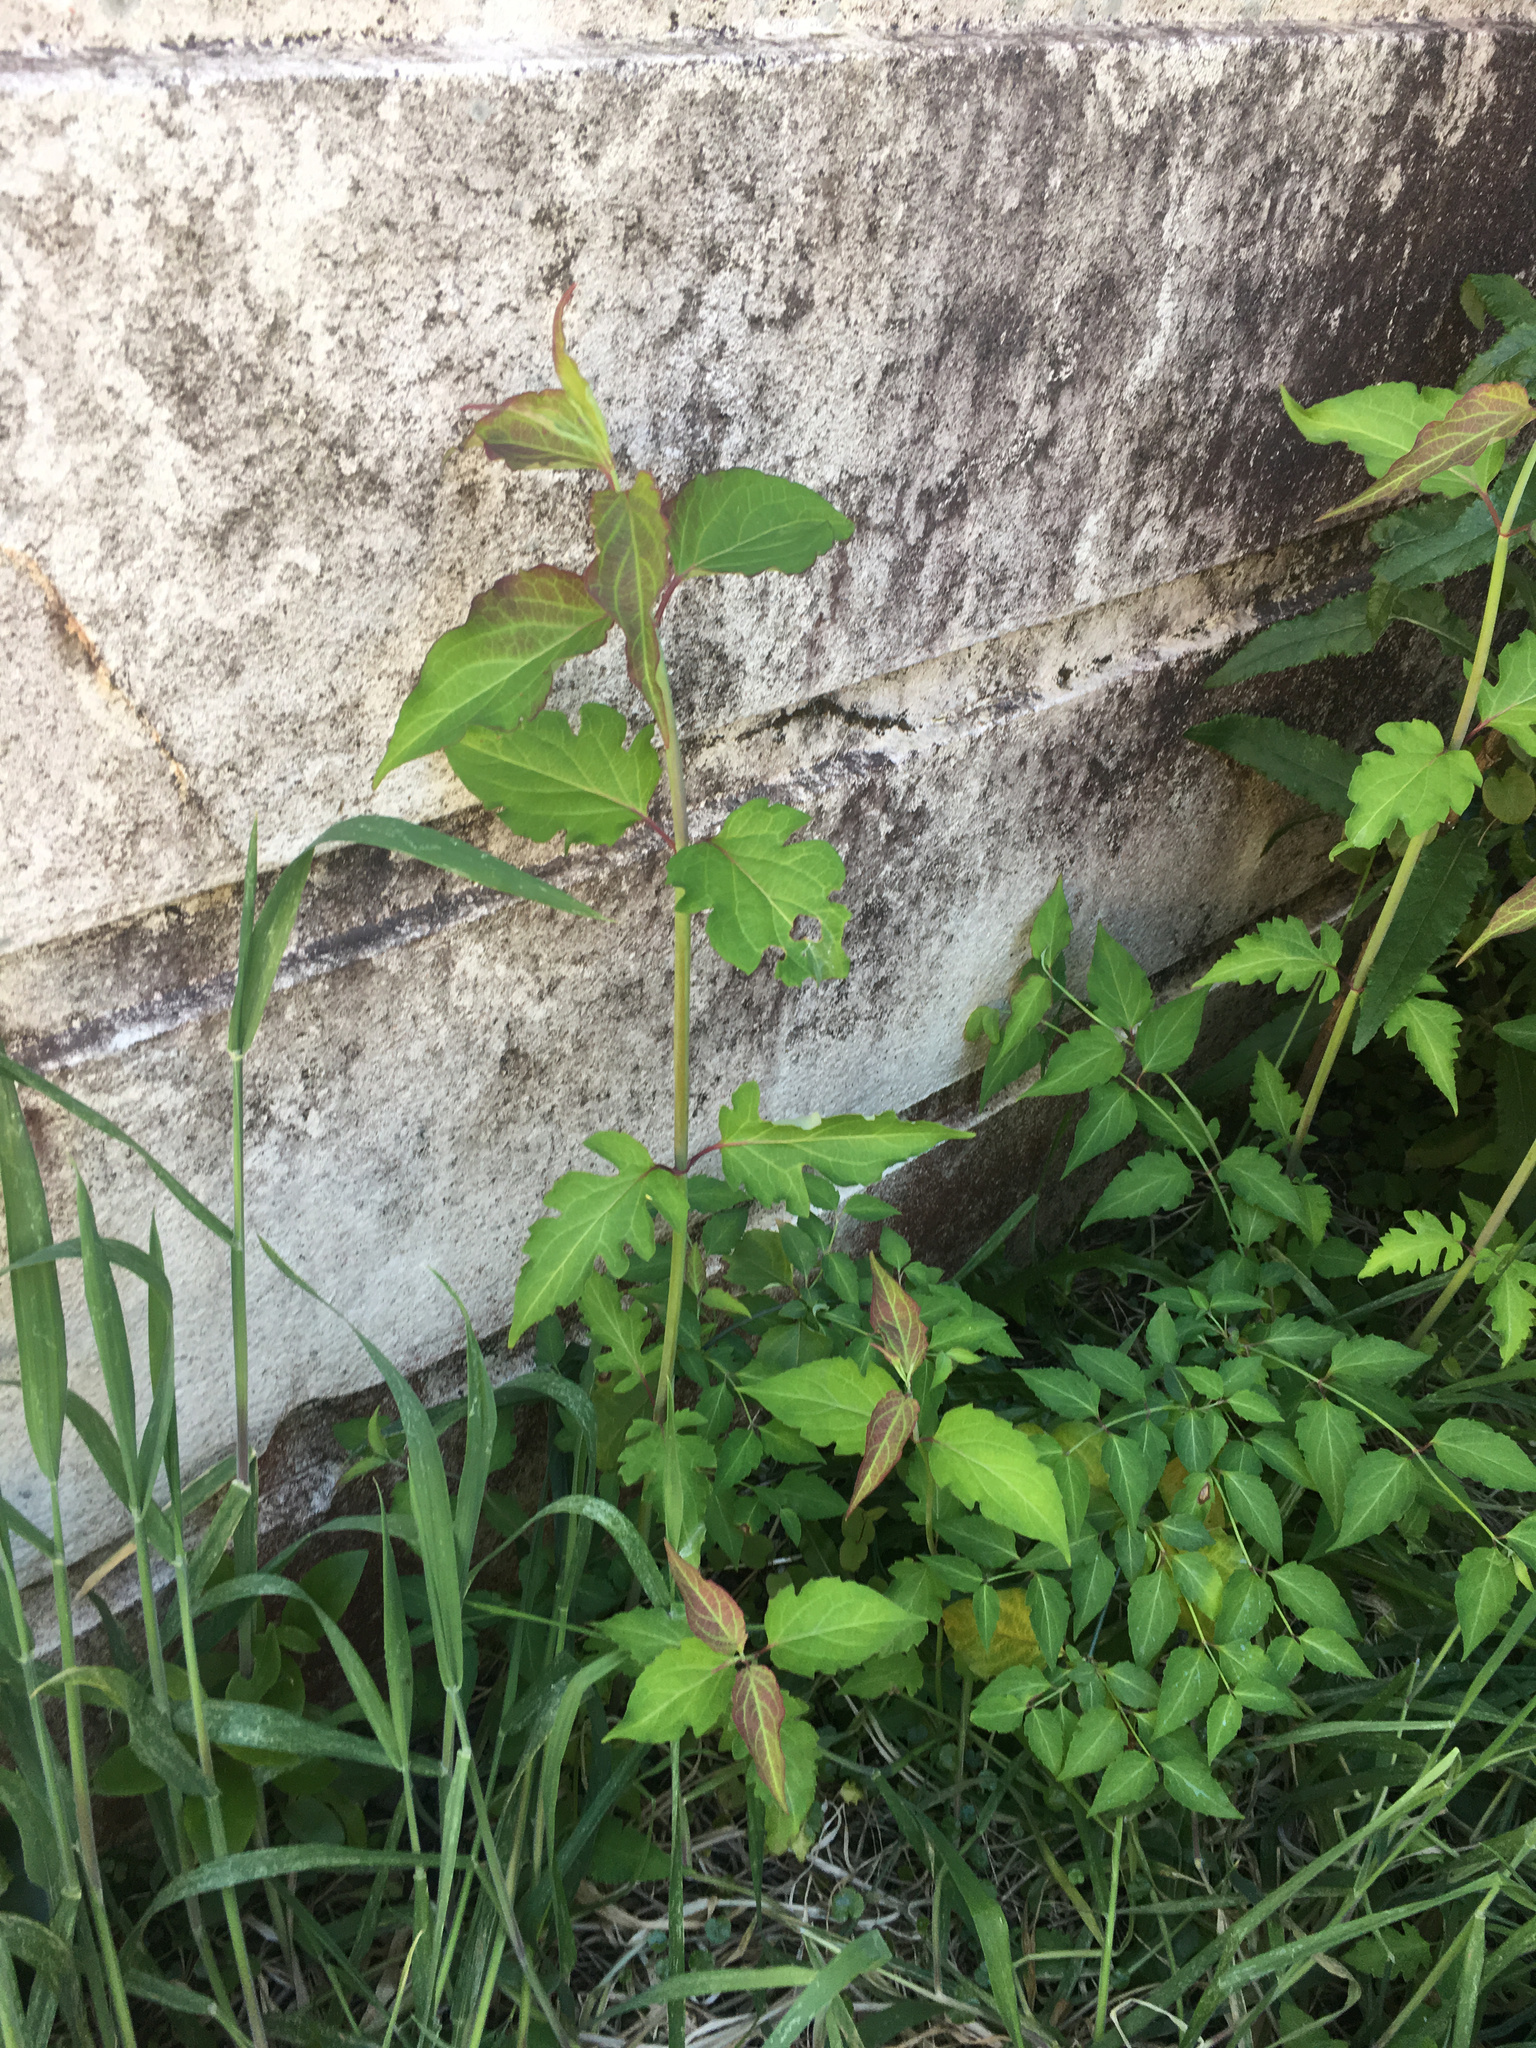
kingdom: Plantae
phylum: Tracheophyta
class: Magnoliopsida
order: Dipsacales
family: Caprifoliaceae
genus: Leycesteria
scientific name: Leycesteria formosa
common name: Himalayan honeysuckle
